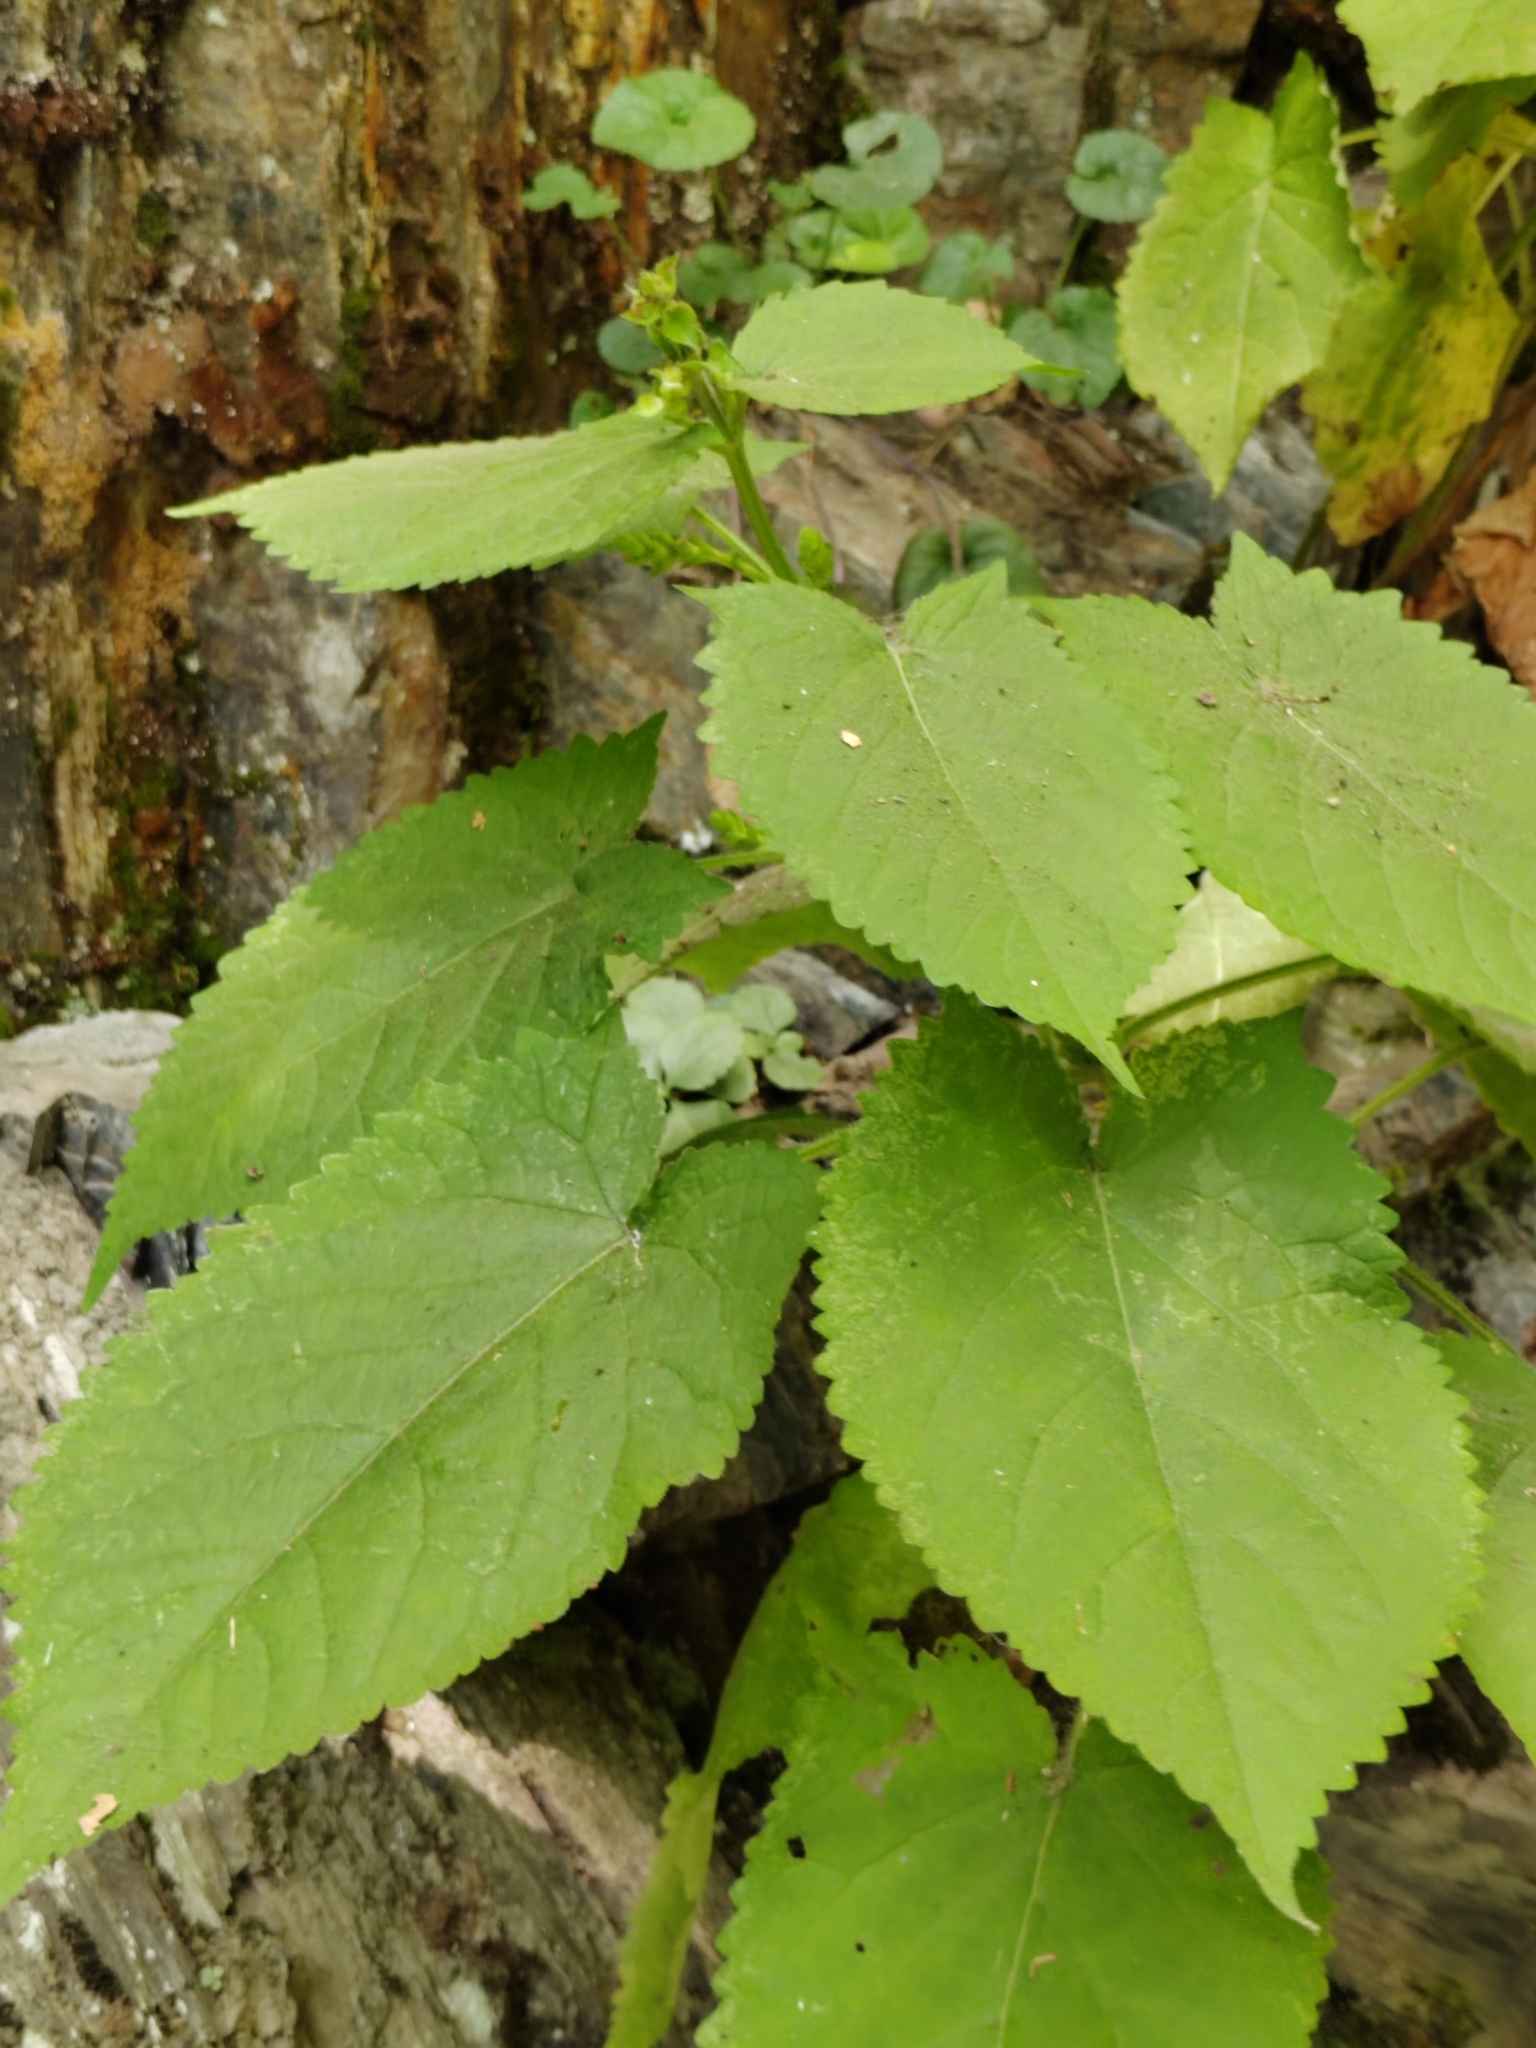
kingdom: Plantae
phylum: Tracheophyta
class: Magnoliopsida
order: Lamiales
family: Lamiaceae
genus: Salvia
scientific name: Salvia glutinosa
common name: Sticky clary
